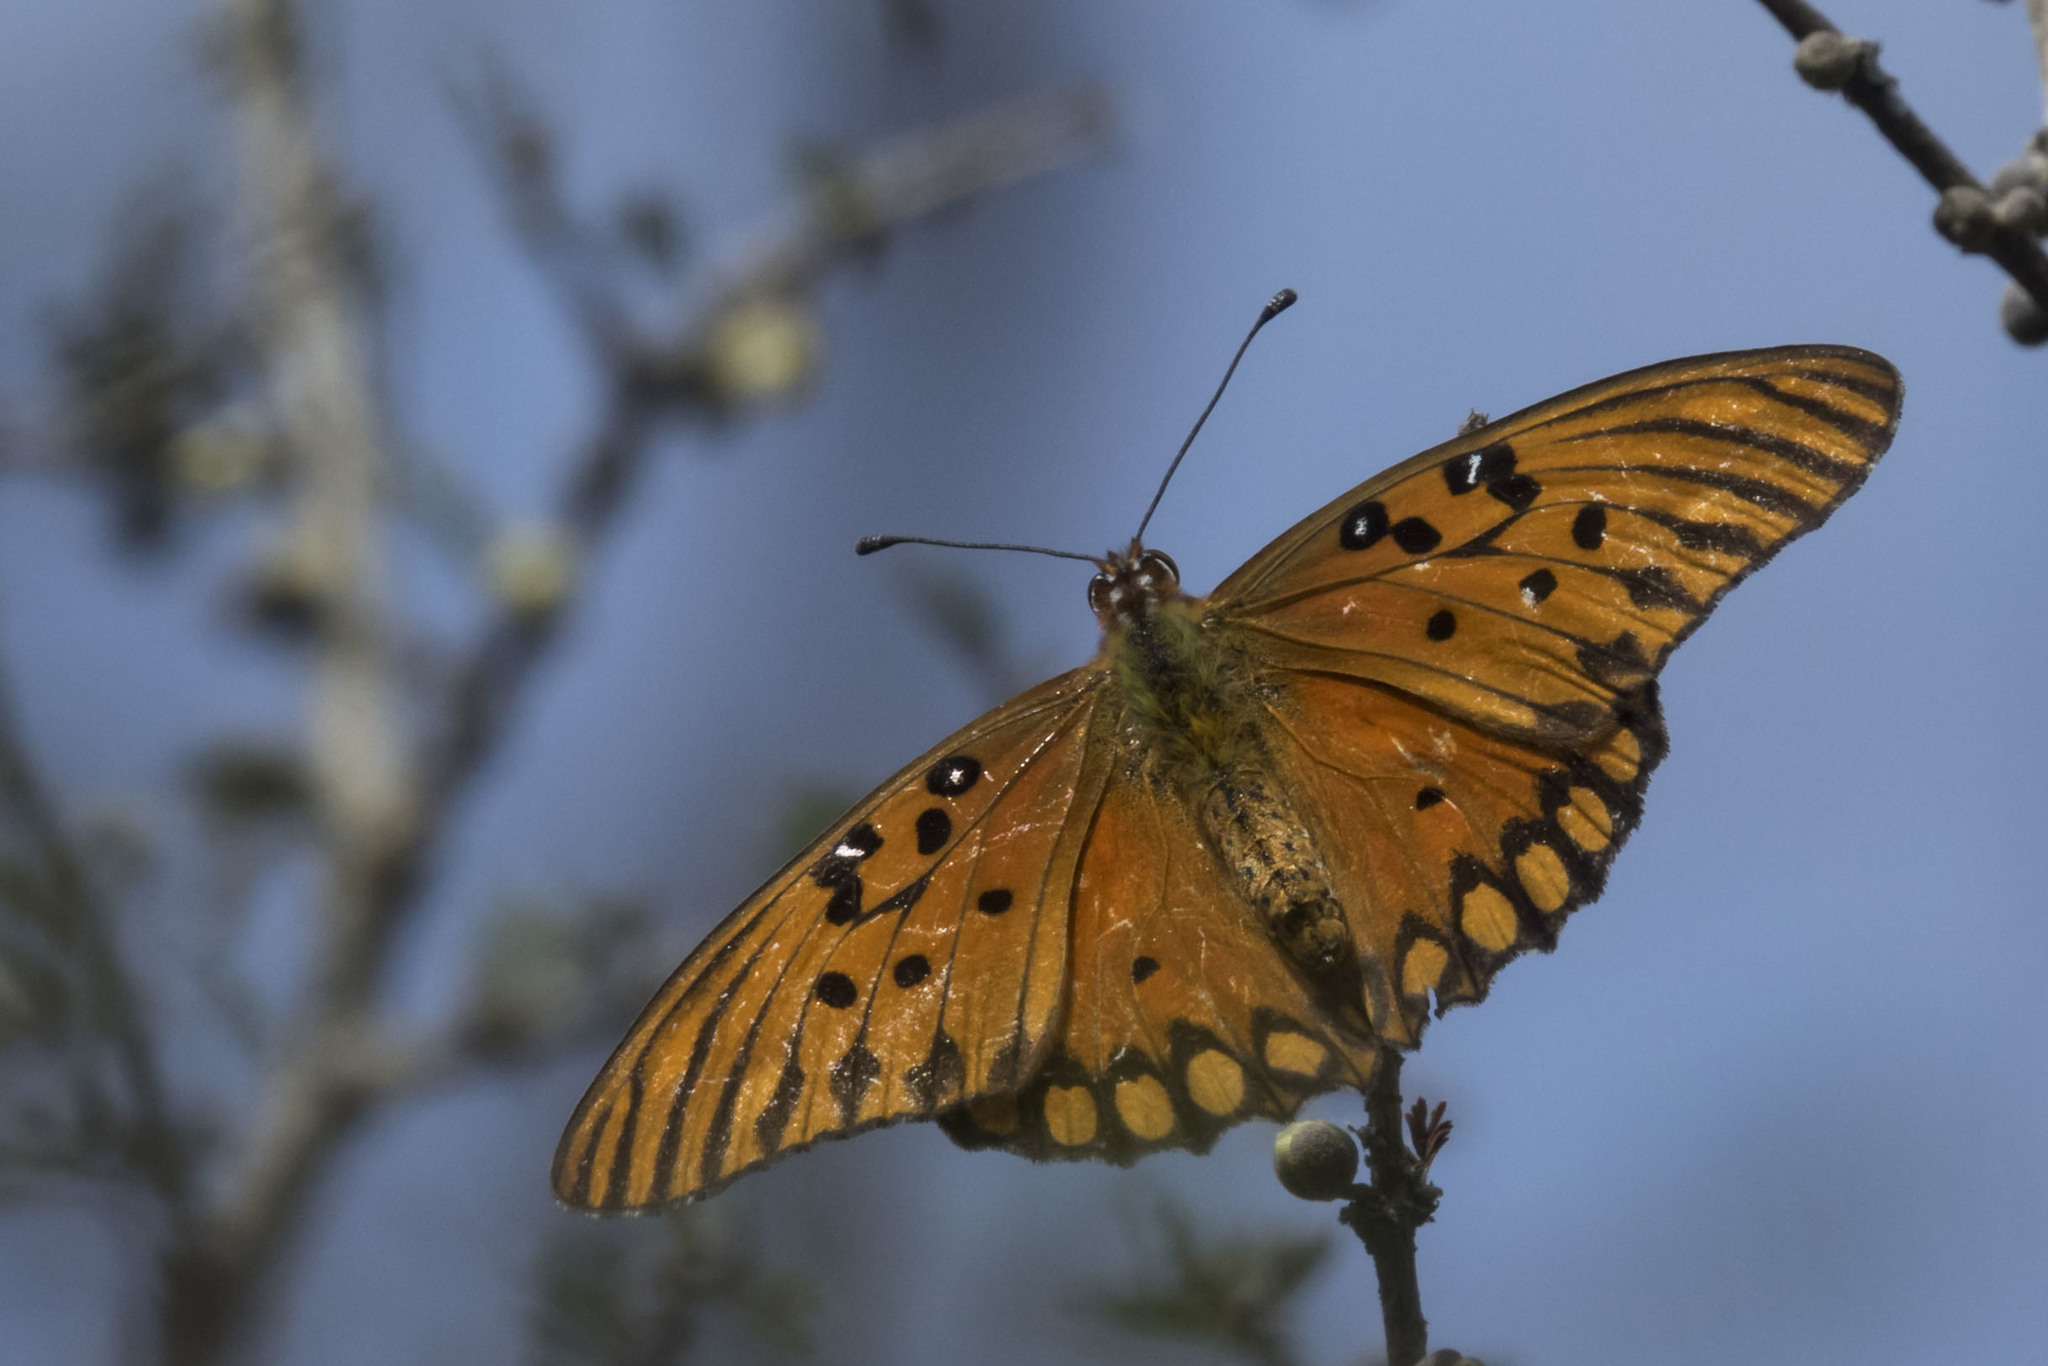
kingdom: Animalia
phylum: Arthropoda
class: Insecta
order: Lepidoptera
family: Nymphalidae
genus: Dione
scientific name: Dione vanillae
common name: Gulf fritillary
